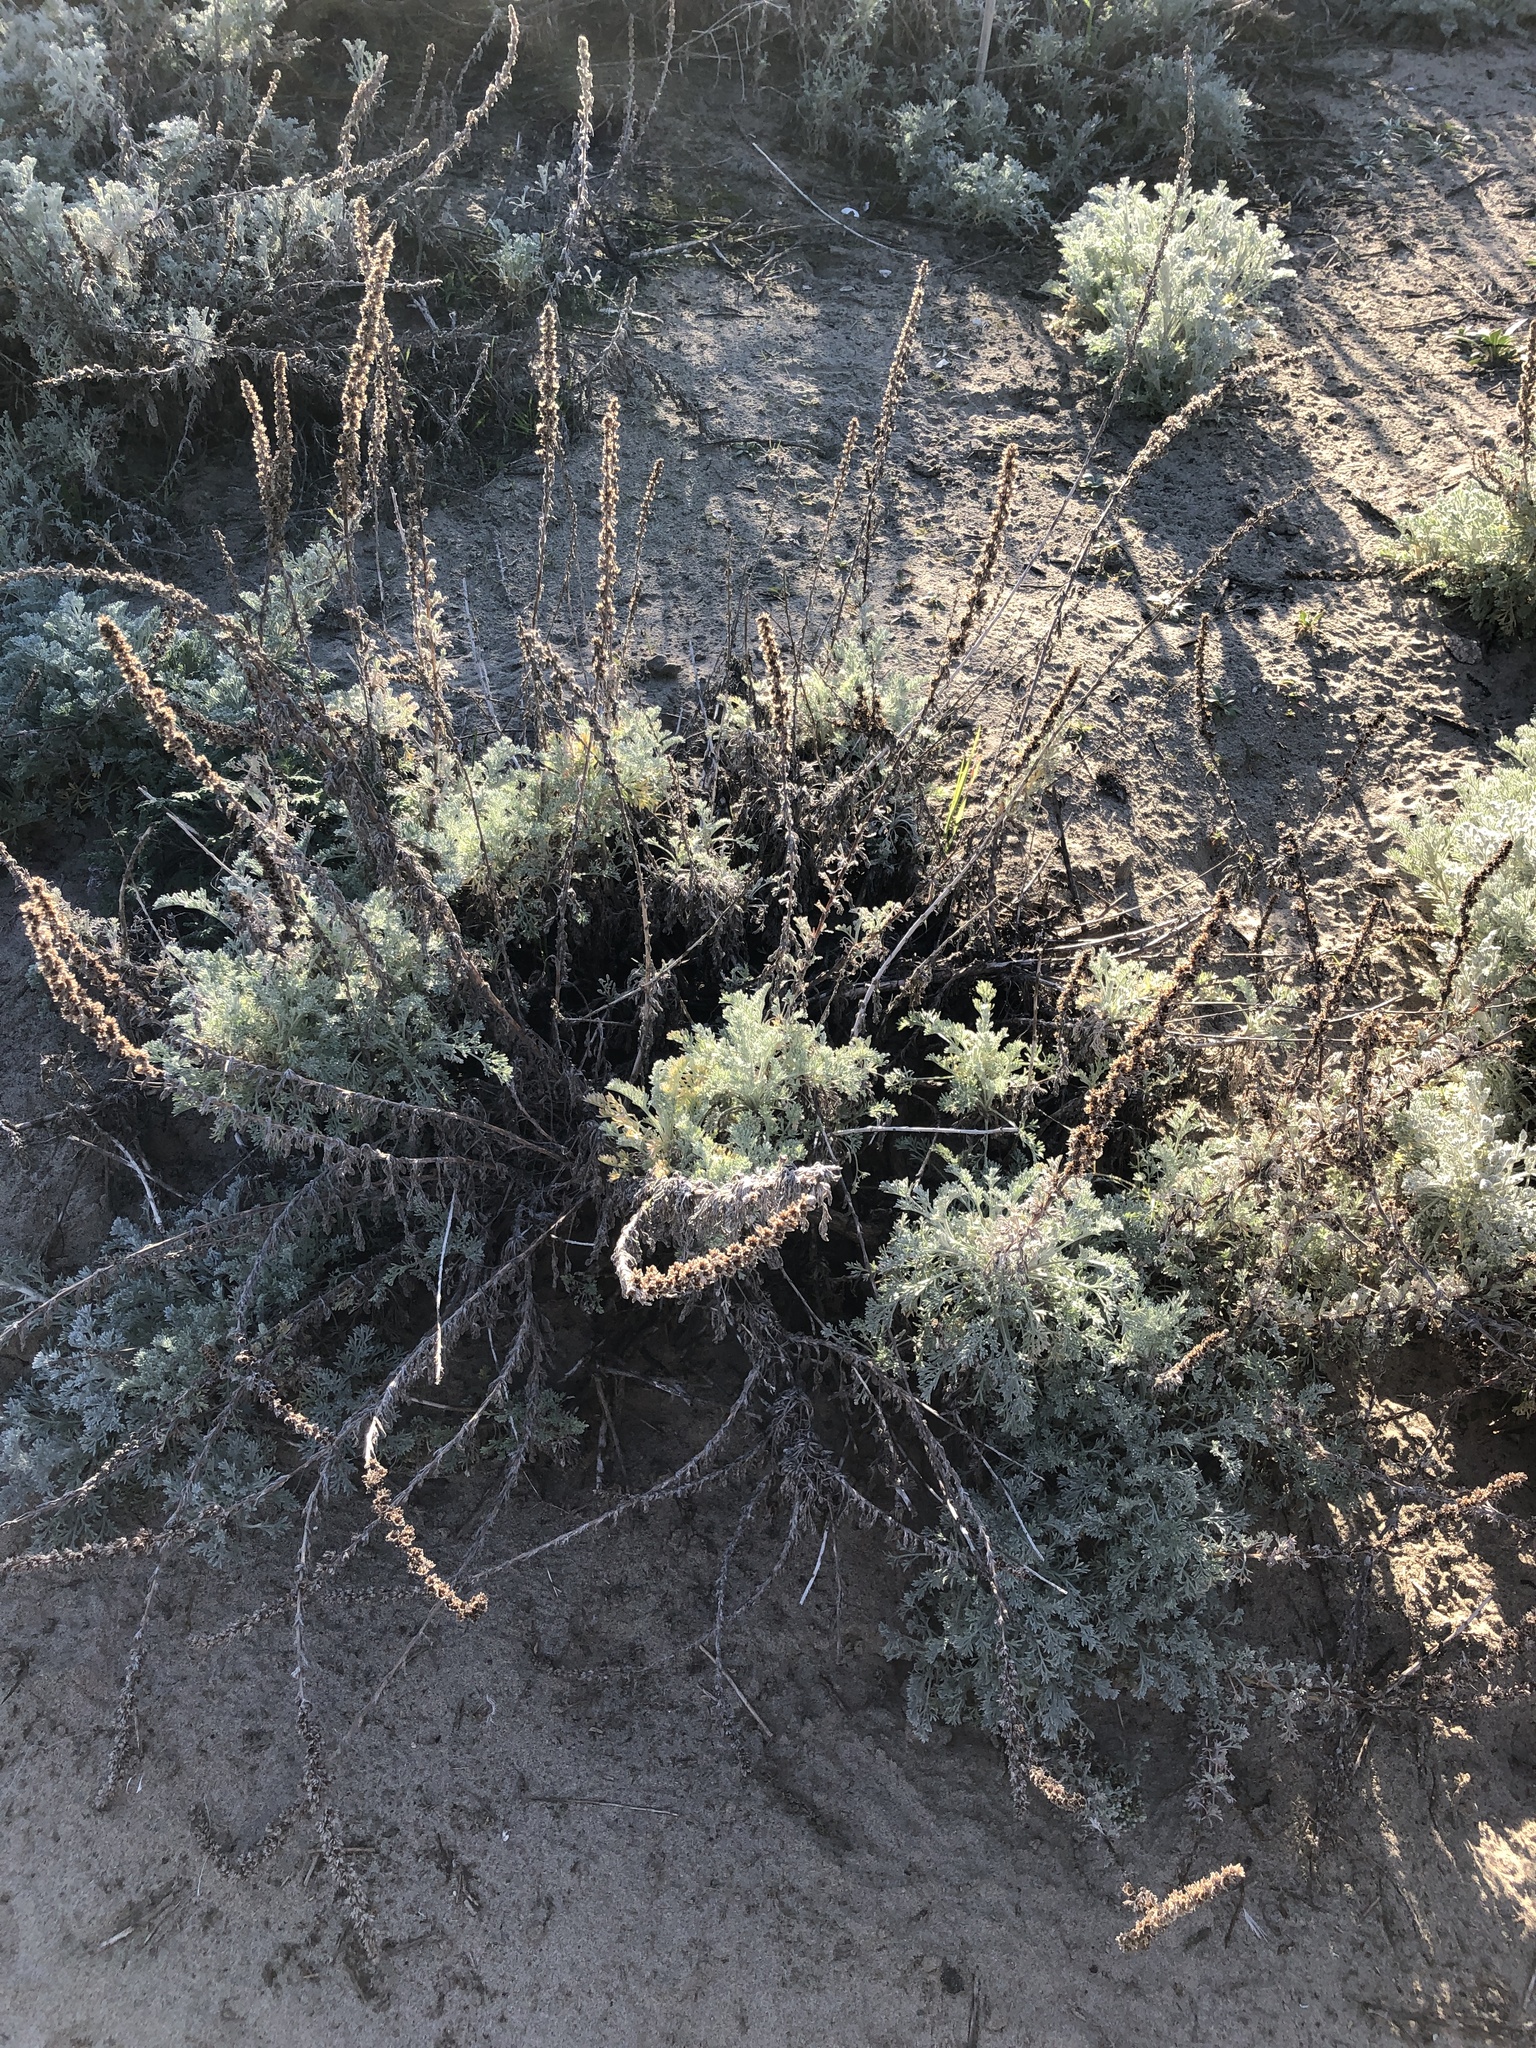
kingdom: Plantae
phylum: Tracheophyta
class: Magnoliopsida
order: Asterales
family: Asteraceae
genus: Artemisia
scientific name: Artemisia pycnocephala
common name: Coastal sagewort
